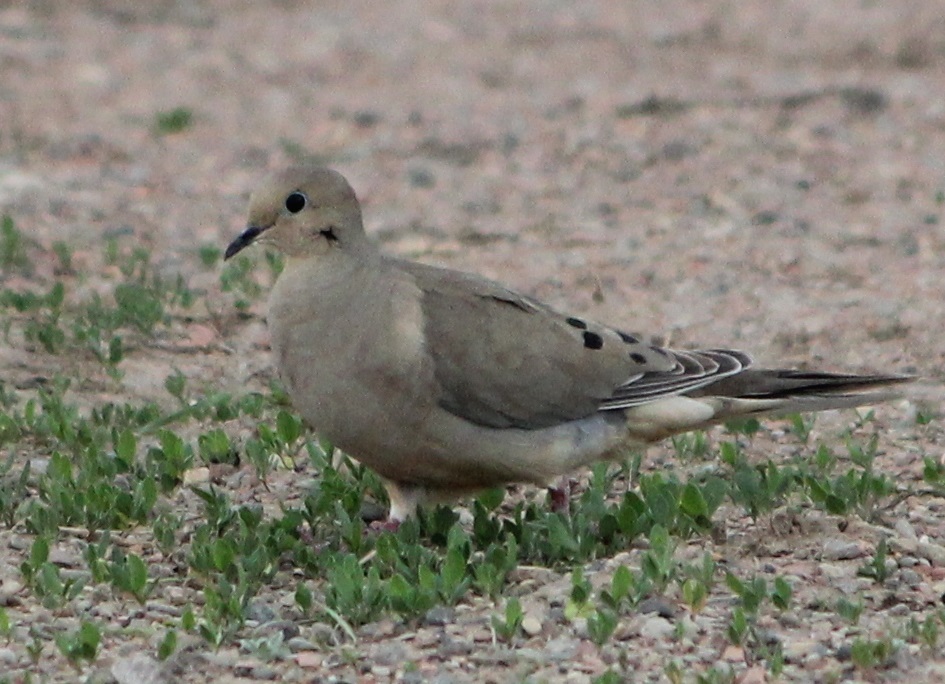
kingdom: Animalia
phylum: Chordata
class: Aves
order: Columbiformes
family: Columbidae
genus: Zenaida
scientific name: Zenaida macroura
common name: Mourning dove
